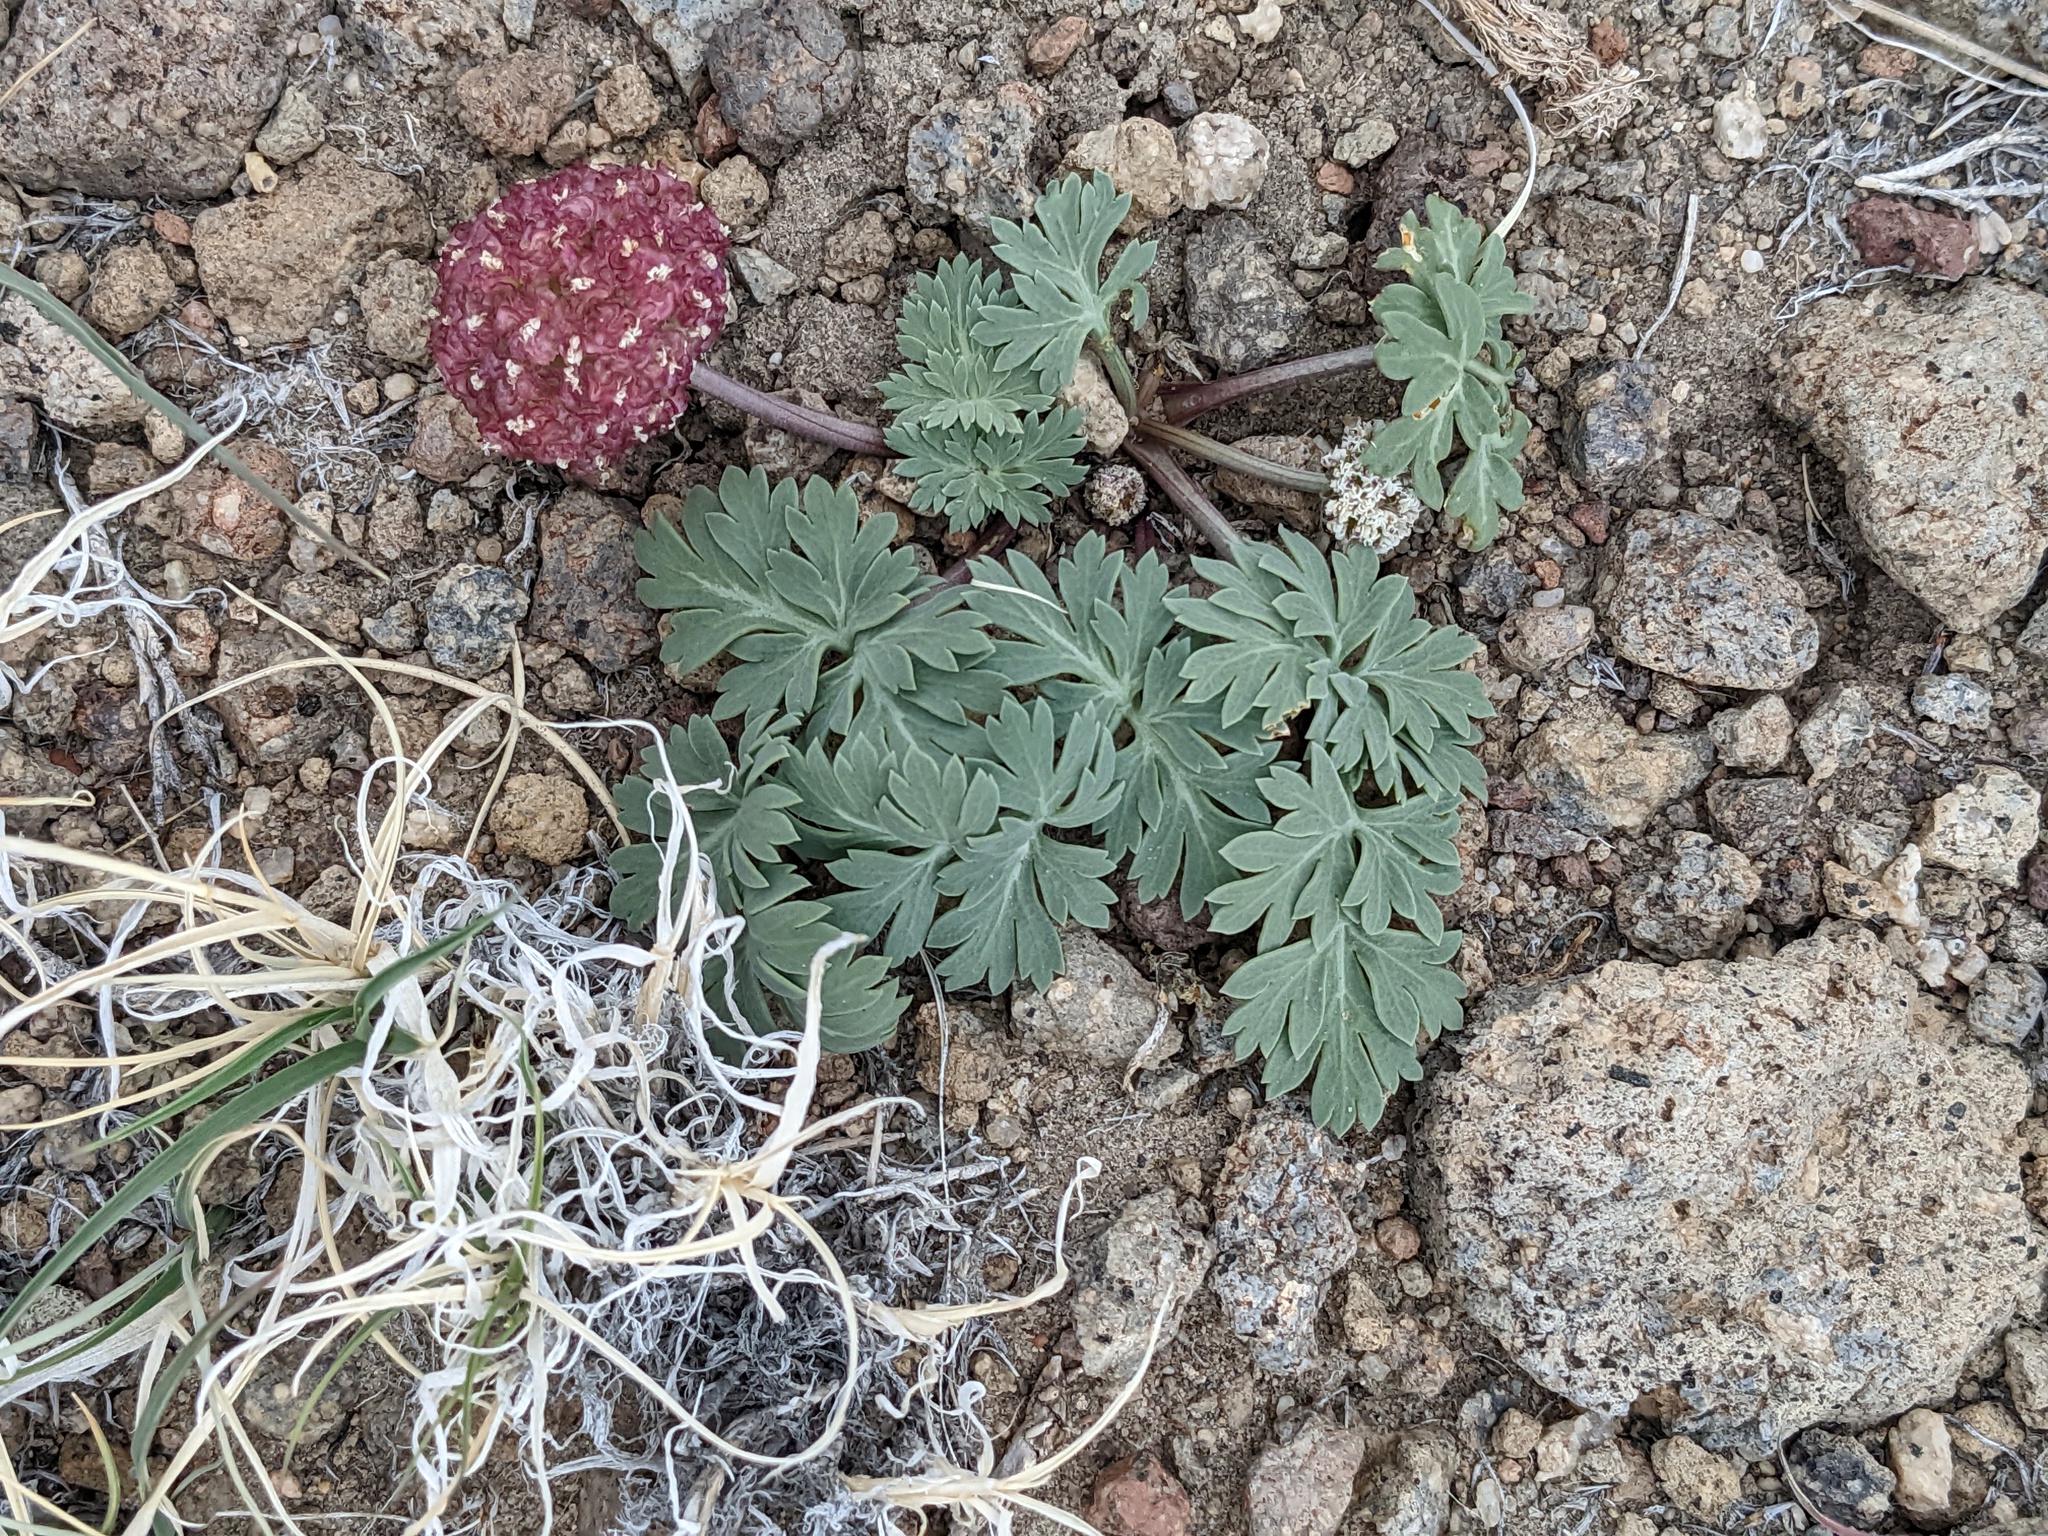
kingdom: Plantae
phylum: Tracheophyta
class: Magnoliopsida
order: Apiales
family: Apiaceae
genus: Cymopterus
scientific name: Cymopterus globosus
